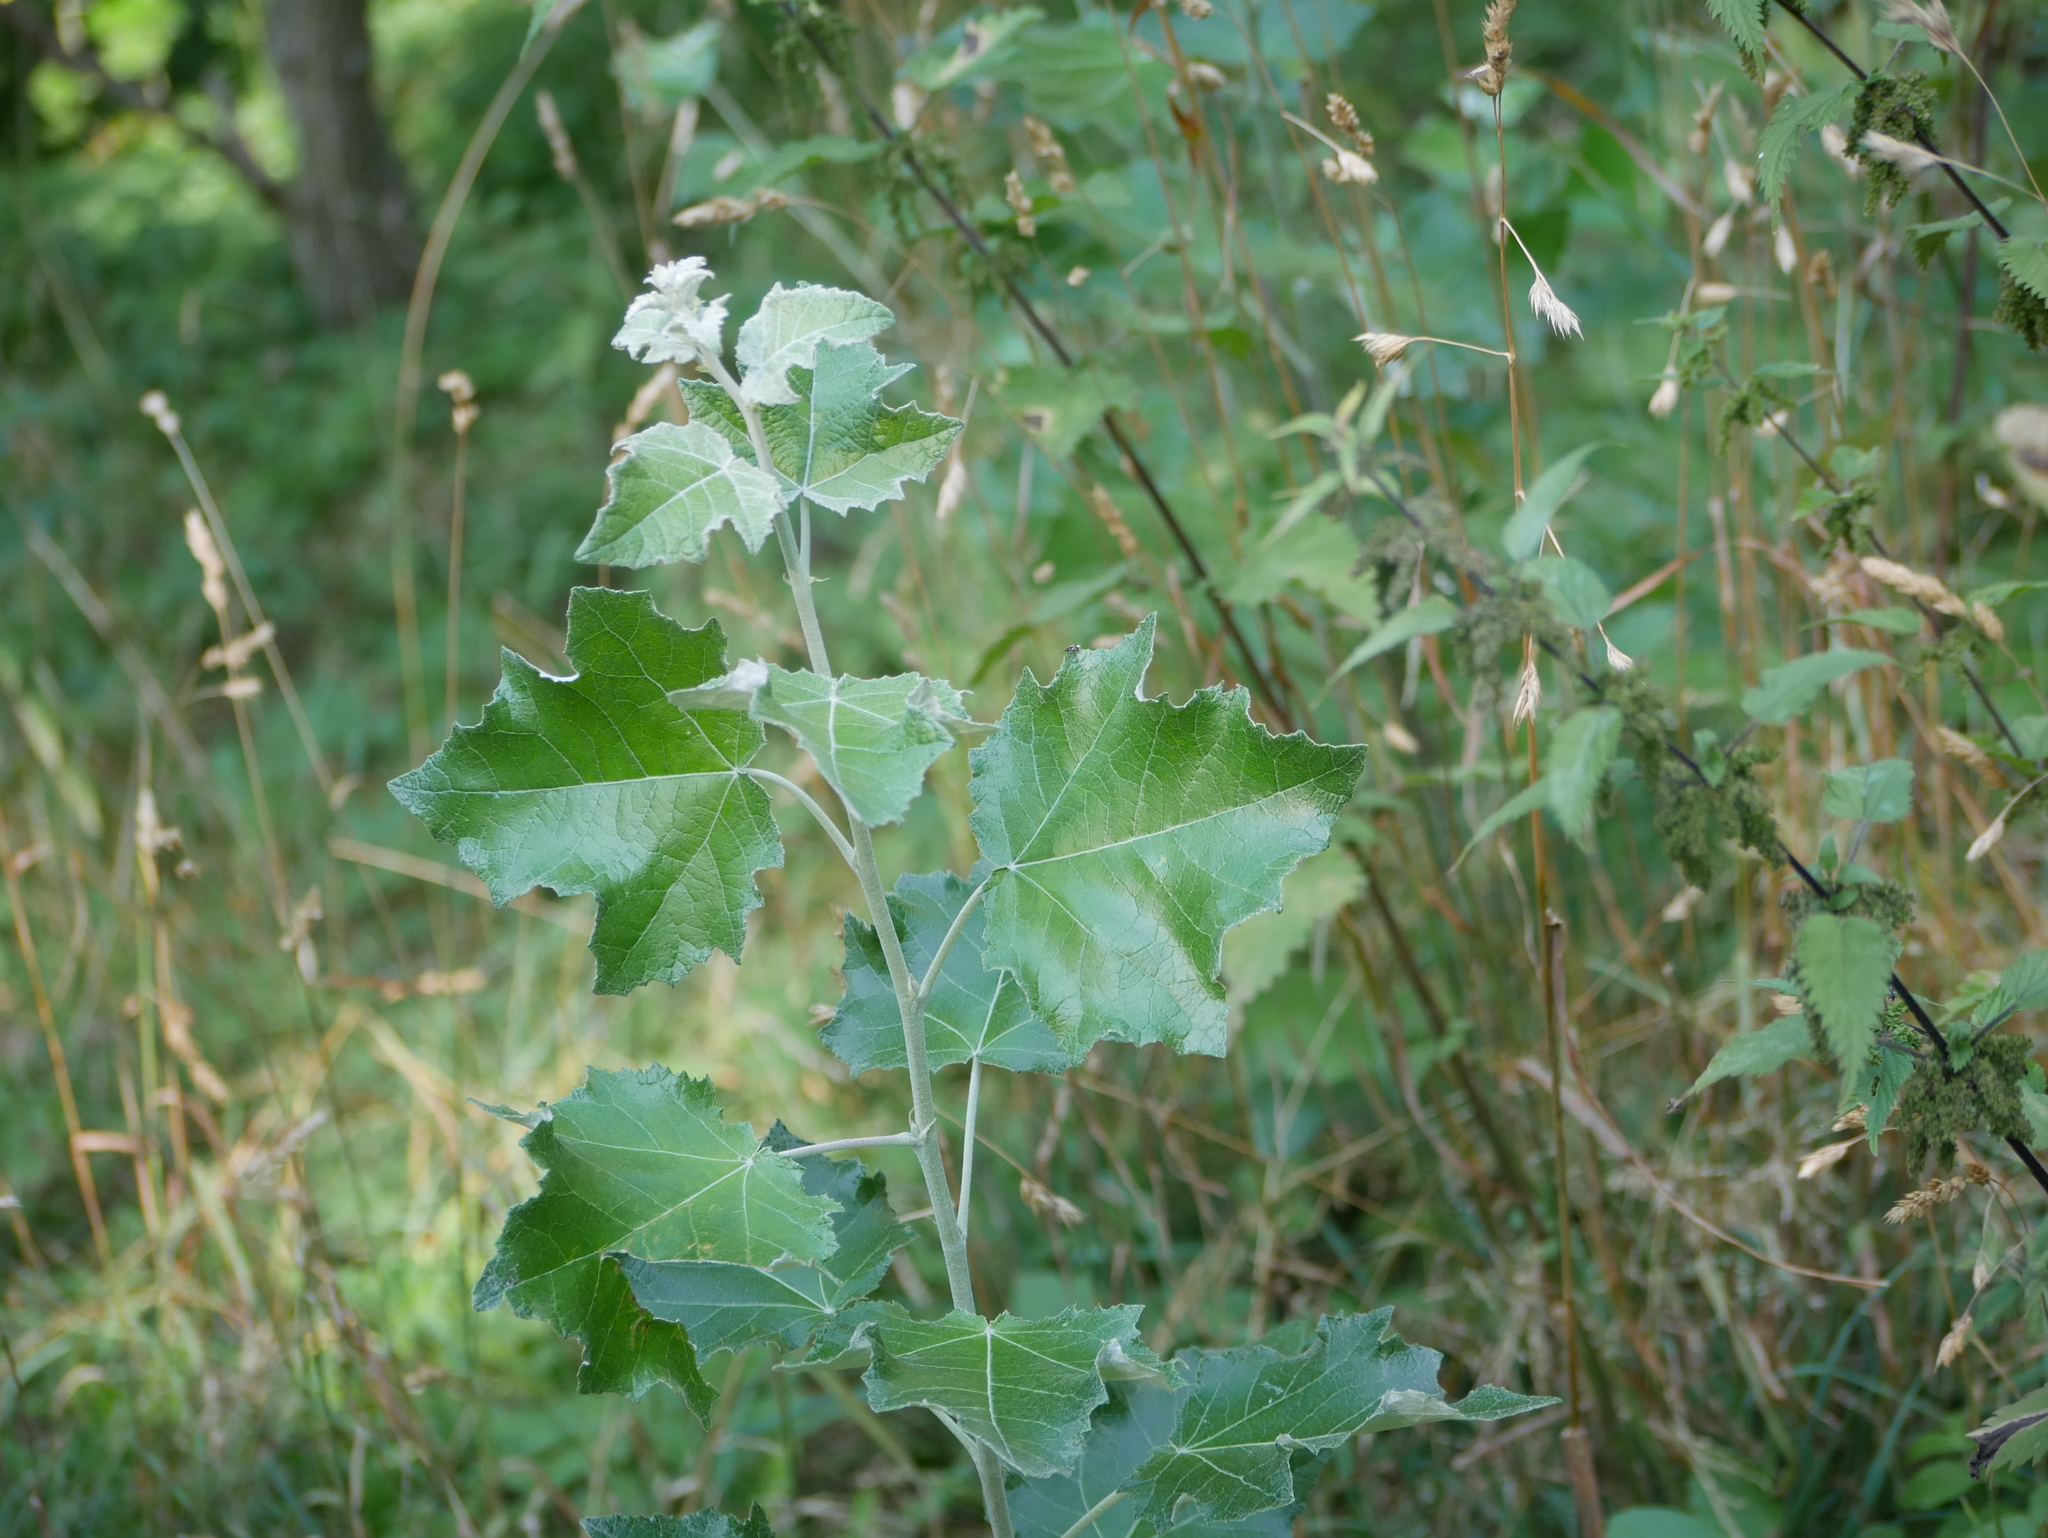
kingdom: Plantae
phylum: Tracheophyta
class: Magnoliopsida
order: Malpighiales
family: Salicaceae
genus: Populus
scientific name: Populus alba
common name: White poplar
